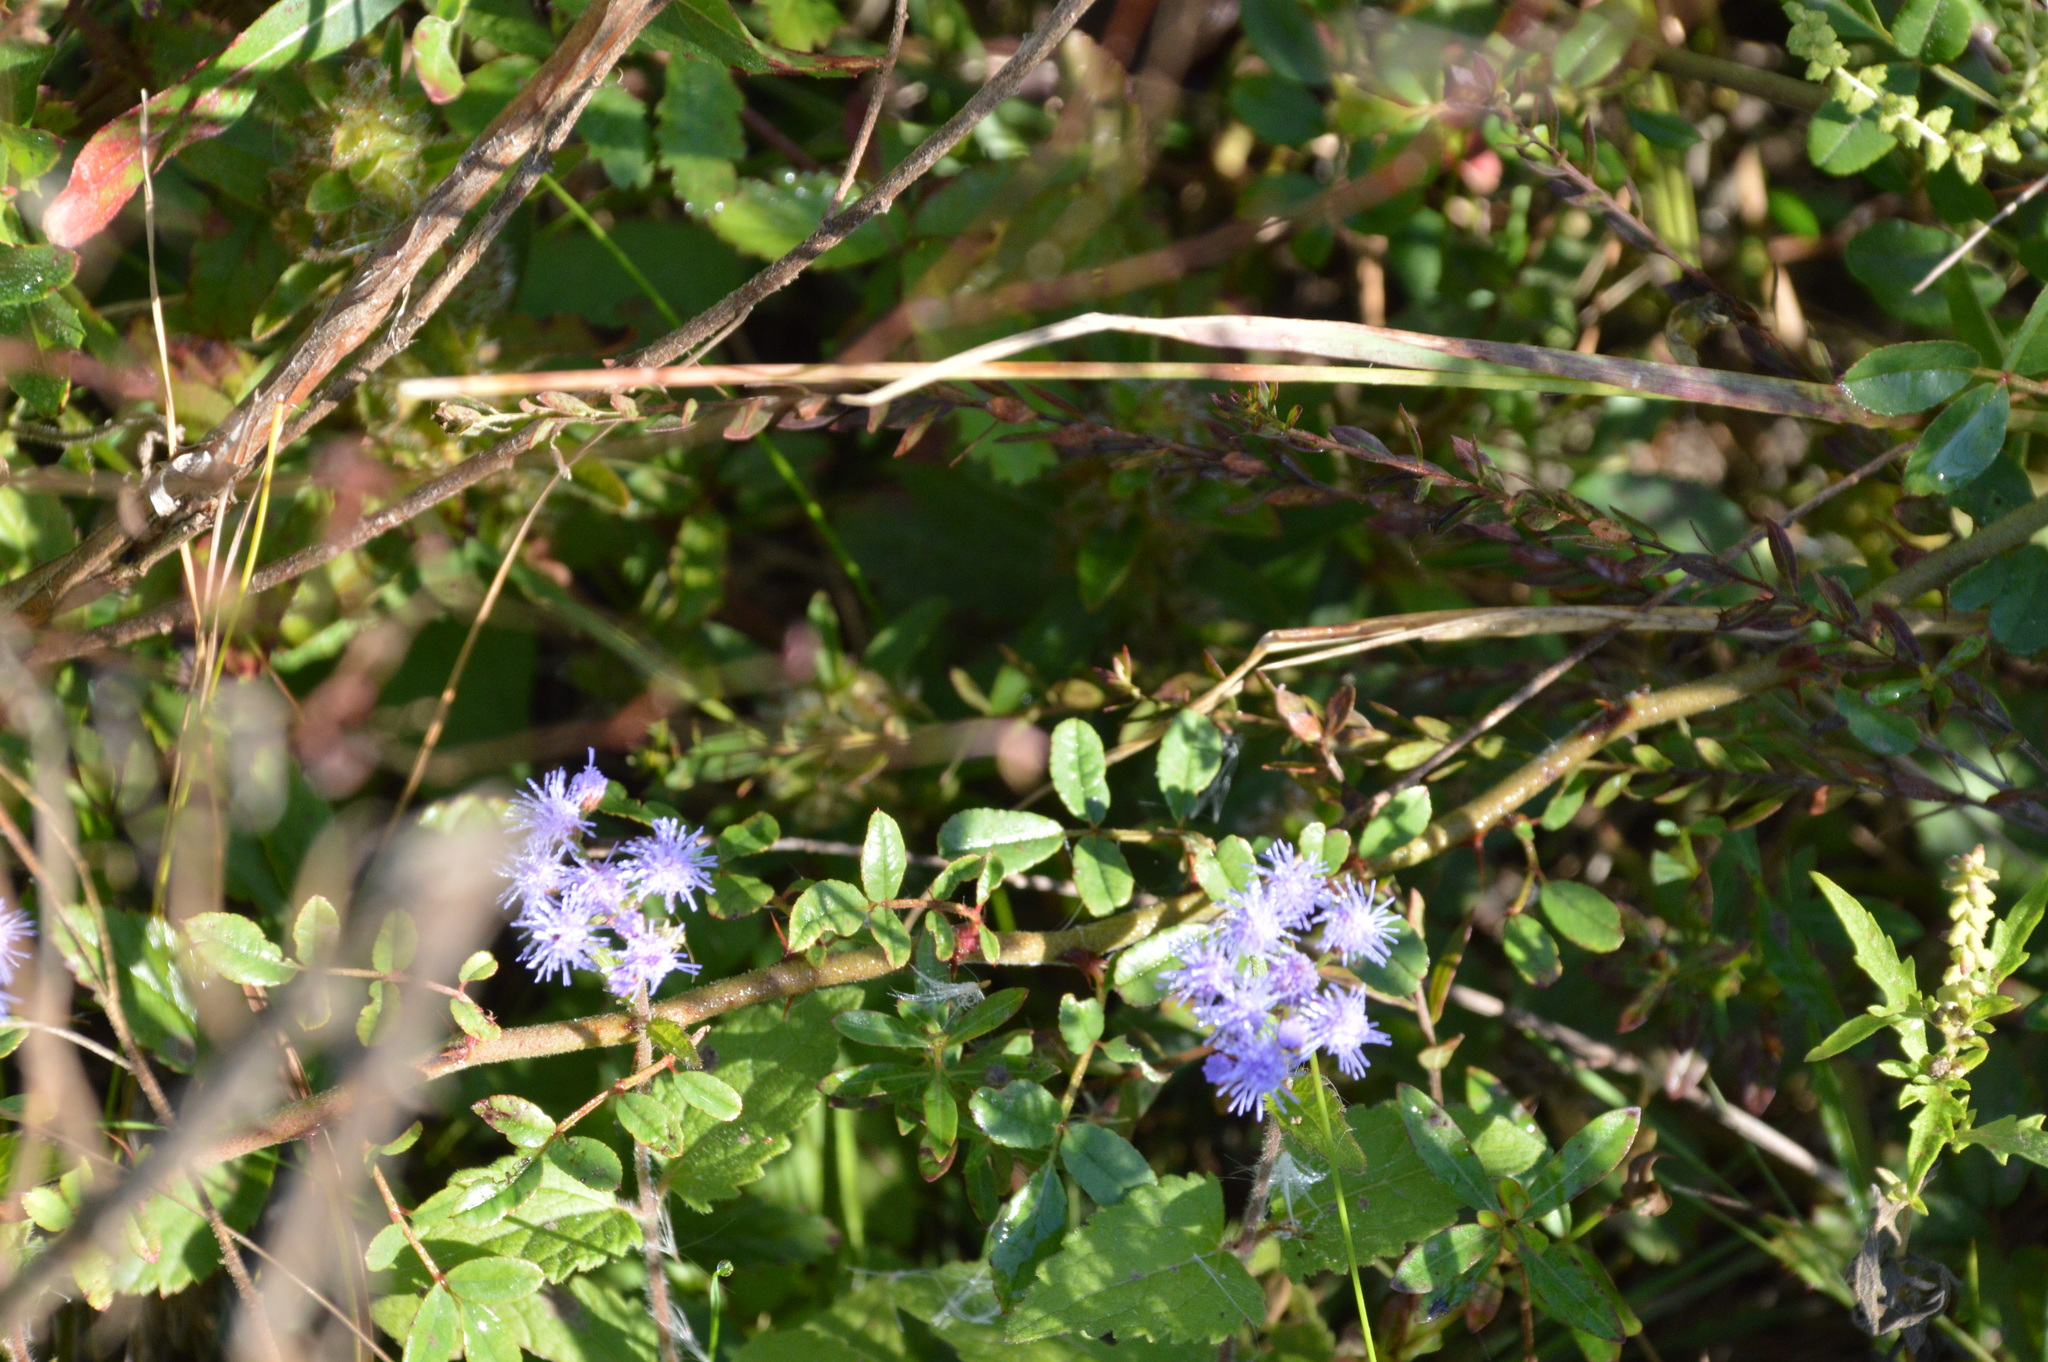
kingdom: Plantae
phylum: Tracheophyta
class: Magnoliopsida
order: Asterales
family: Asteraceae
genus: Conoclinium
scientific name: Conoclinium coelestinum
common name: Blue mistflower
